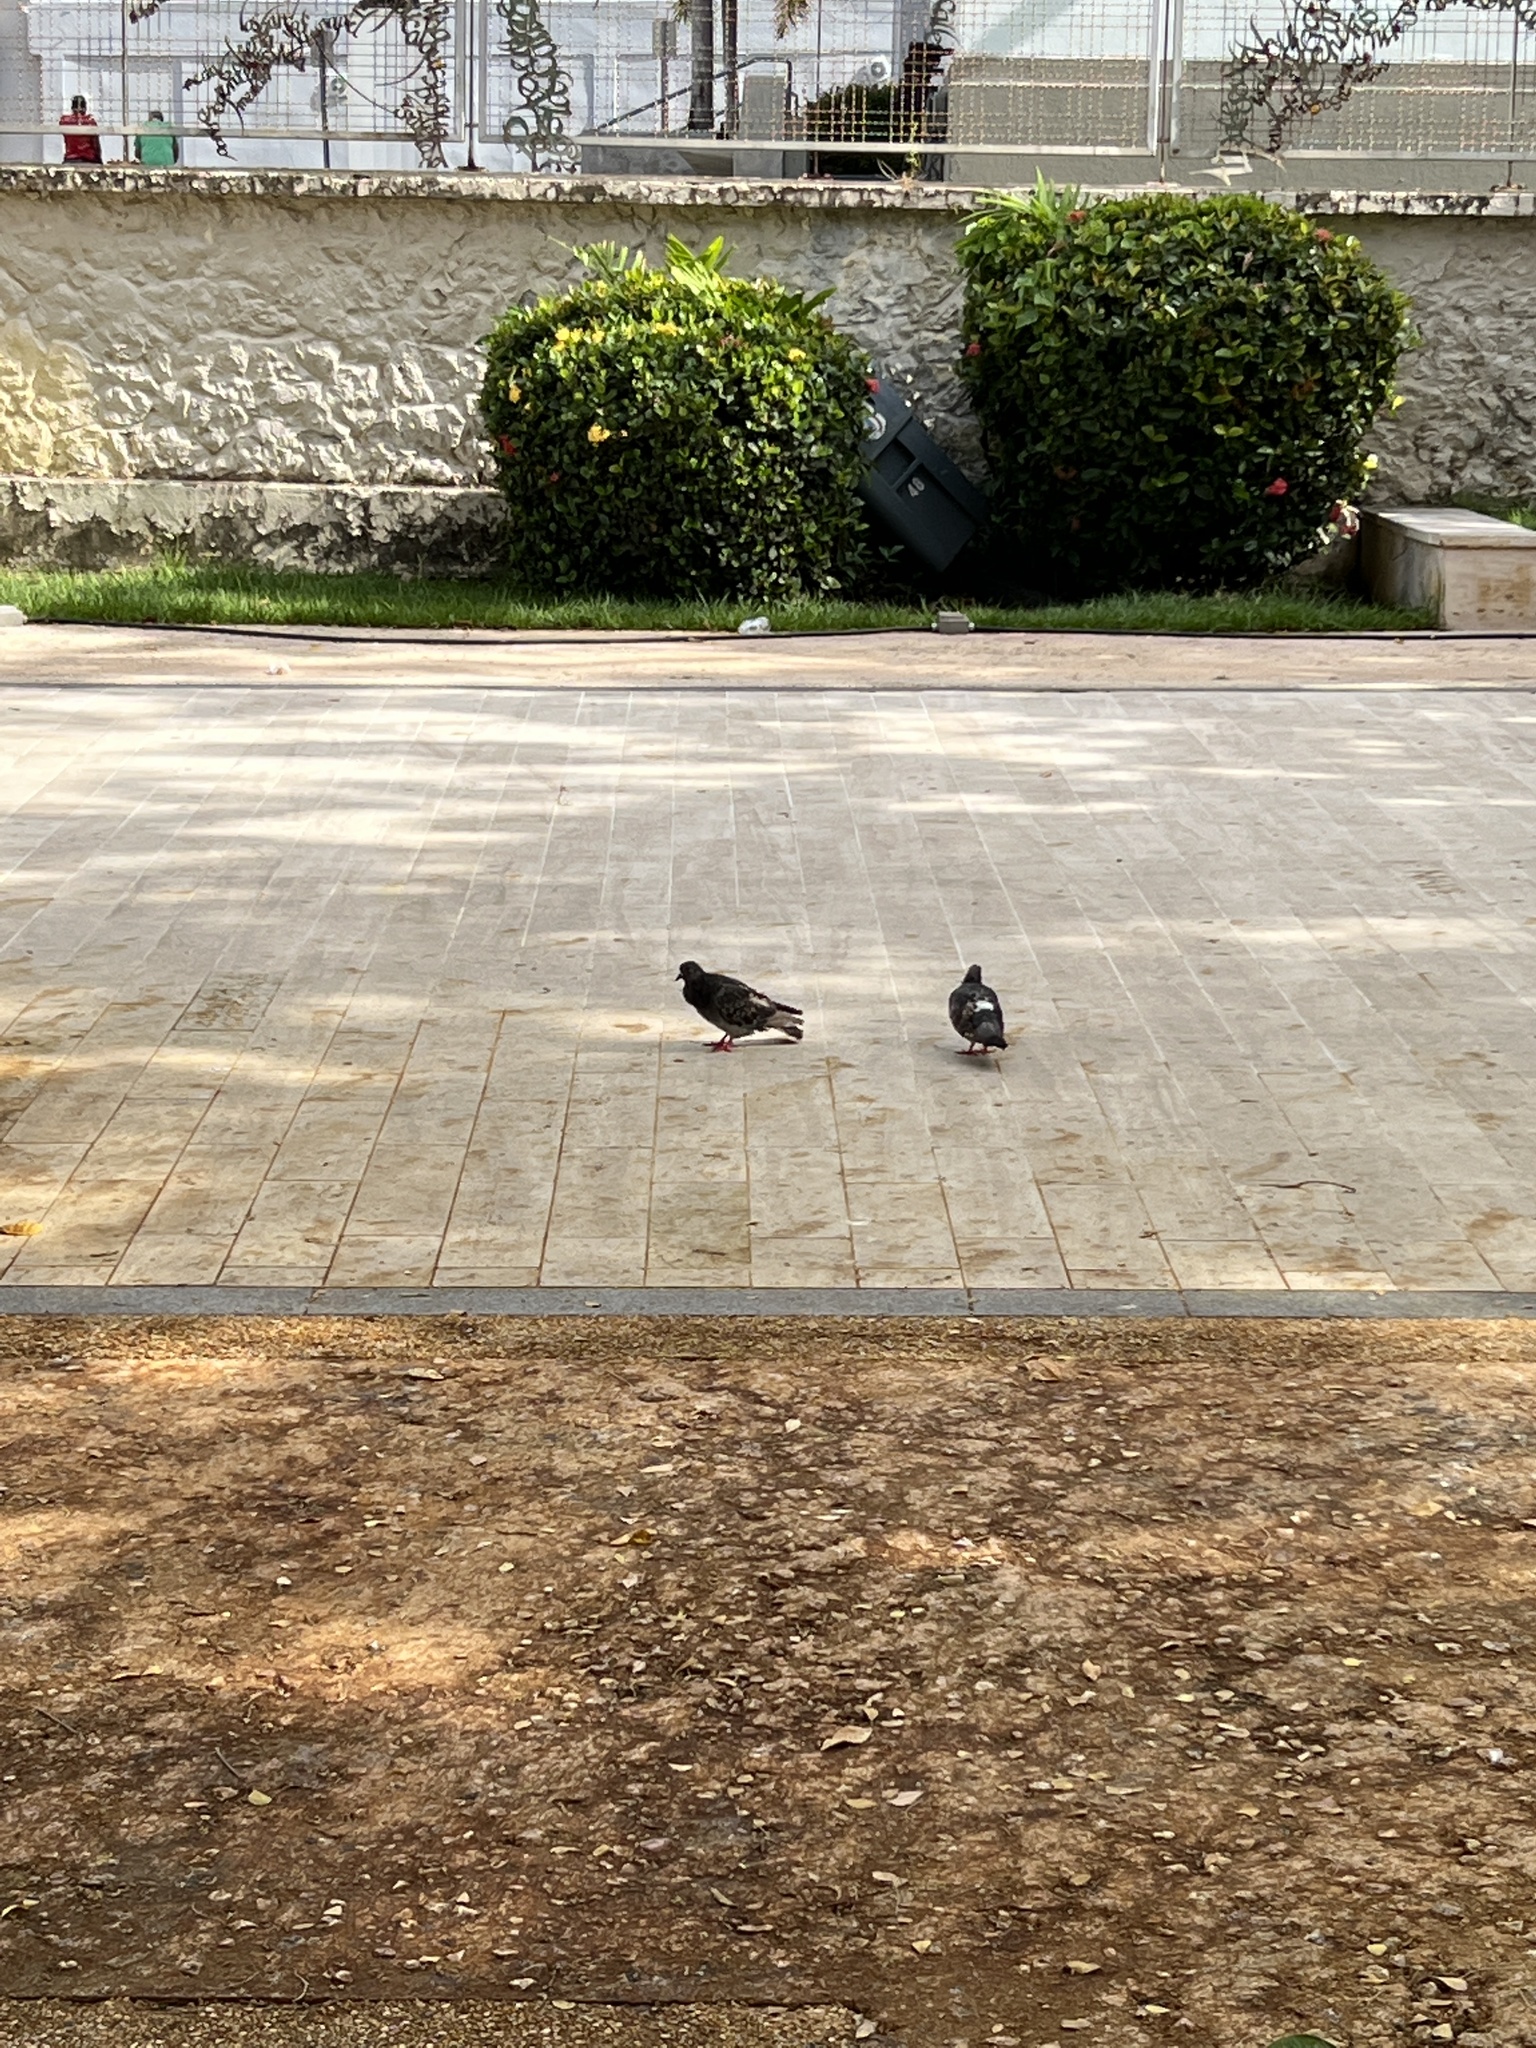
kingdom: Animalia
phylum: Chordata
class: Aves
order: Columbiformes
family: Columbidae
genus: Columba
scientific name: Columba livia
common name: Rock pigeon
